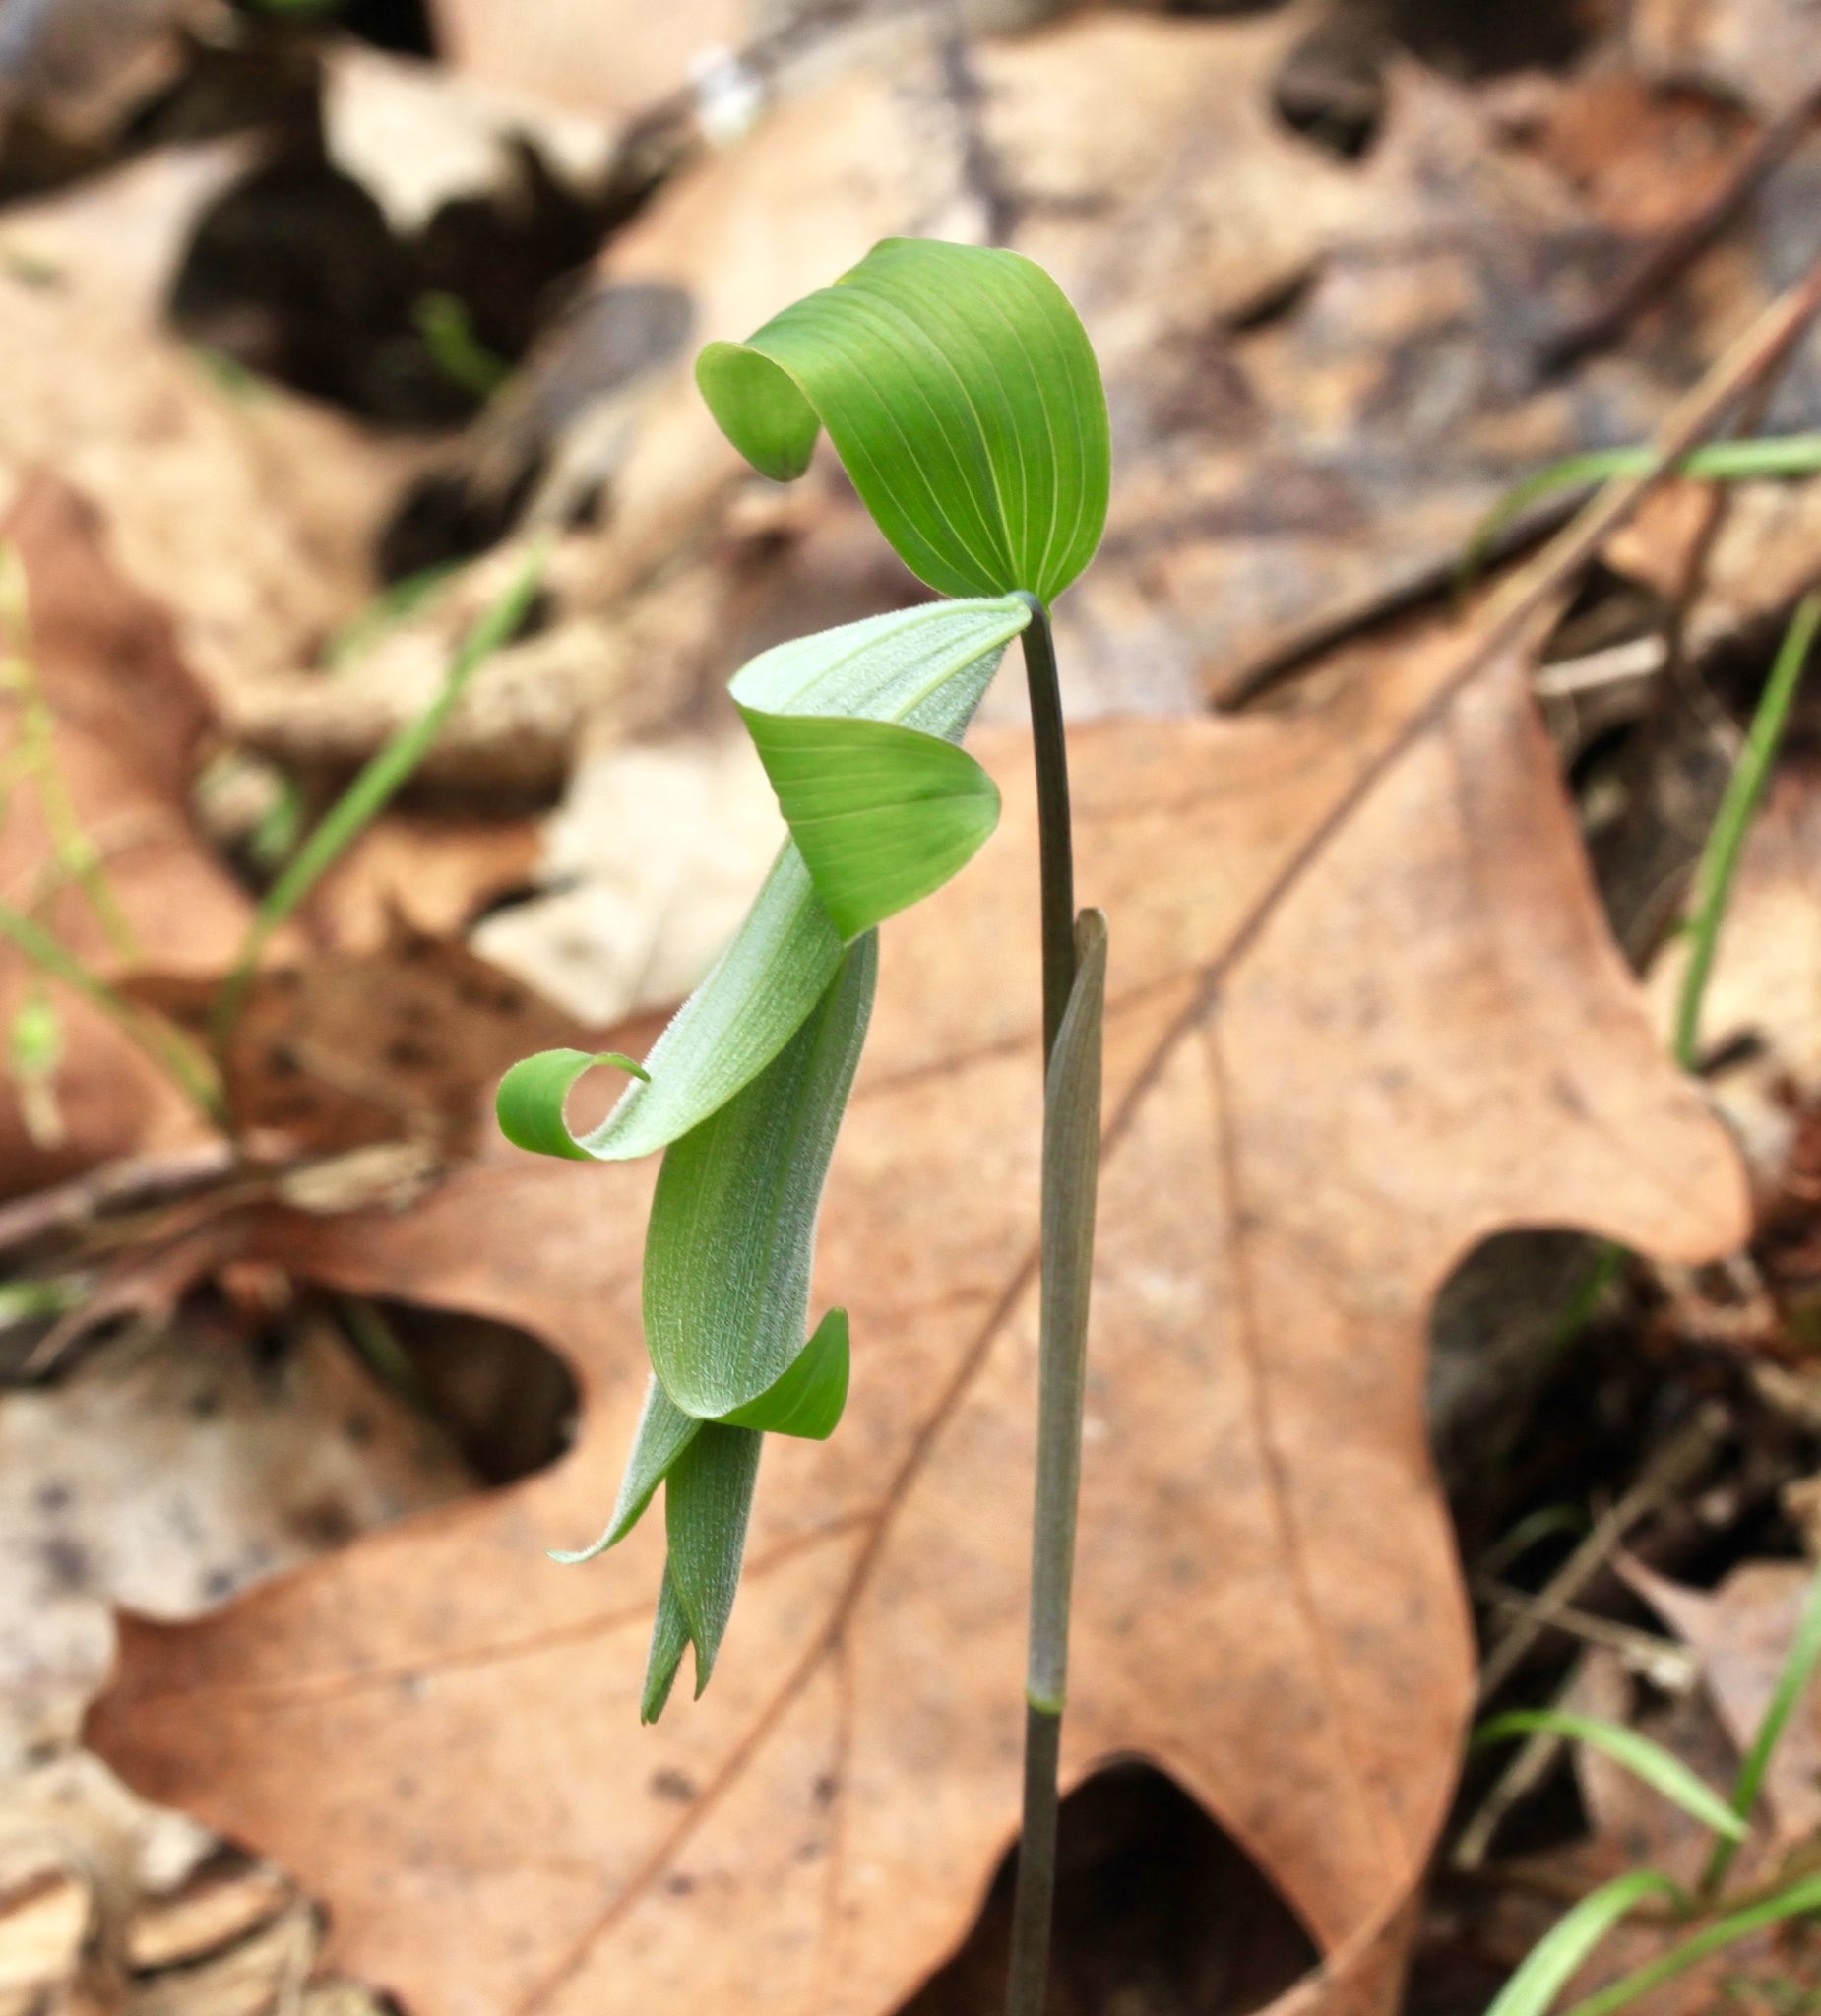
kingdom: Plantae
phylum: Tracheophyta
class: Liliopsida
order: Asparagales
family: Asparagaceae
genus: Polygonatum
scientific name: Polygonatum pubescens
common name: Downy solomon's seal
